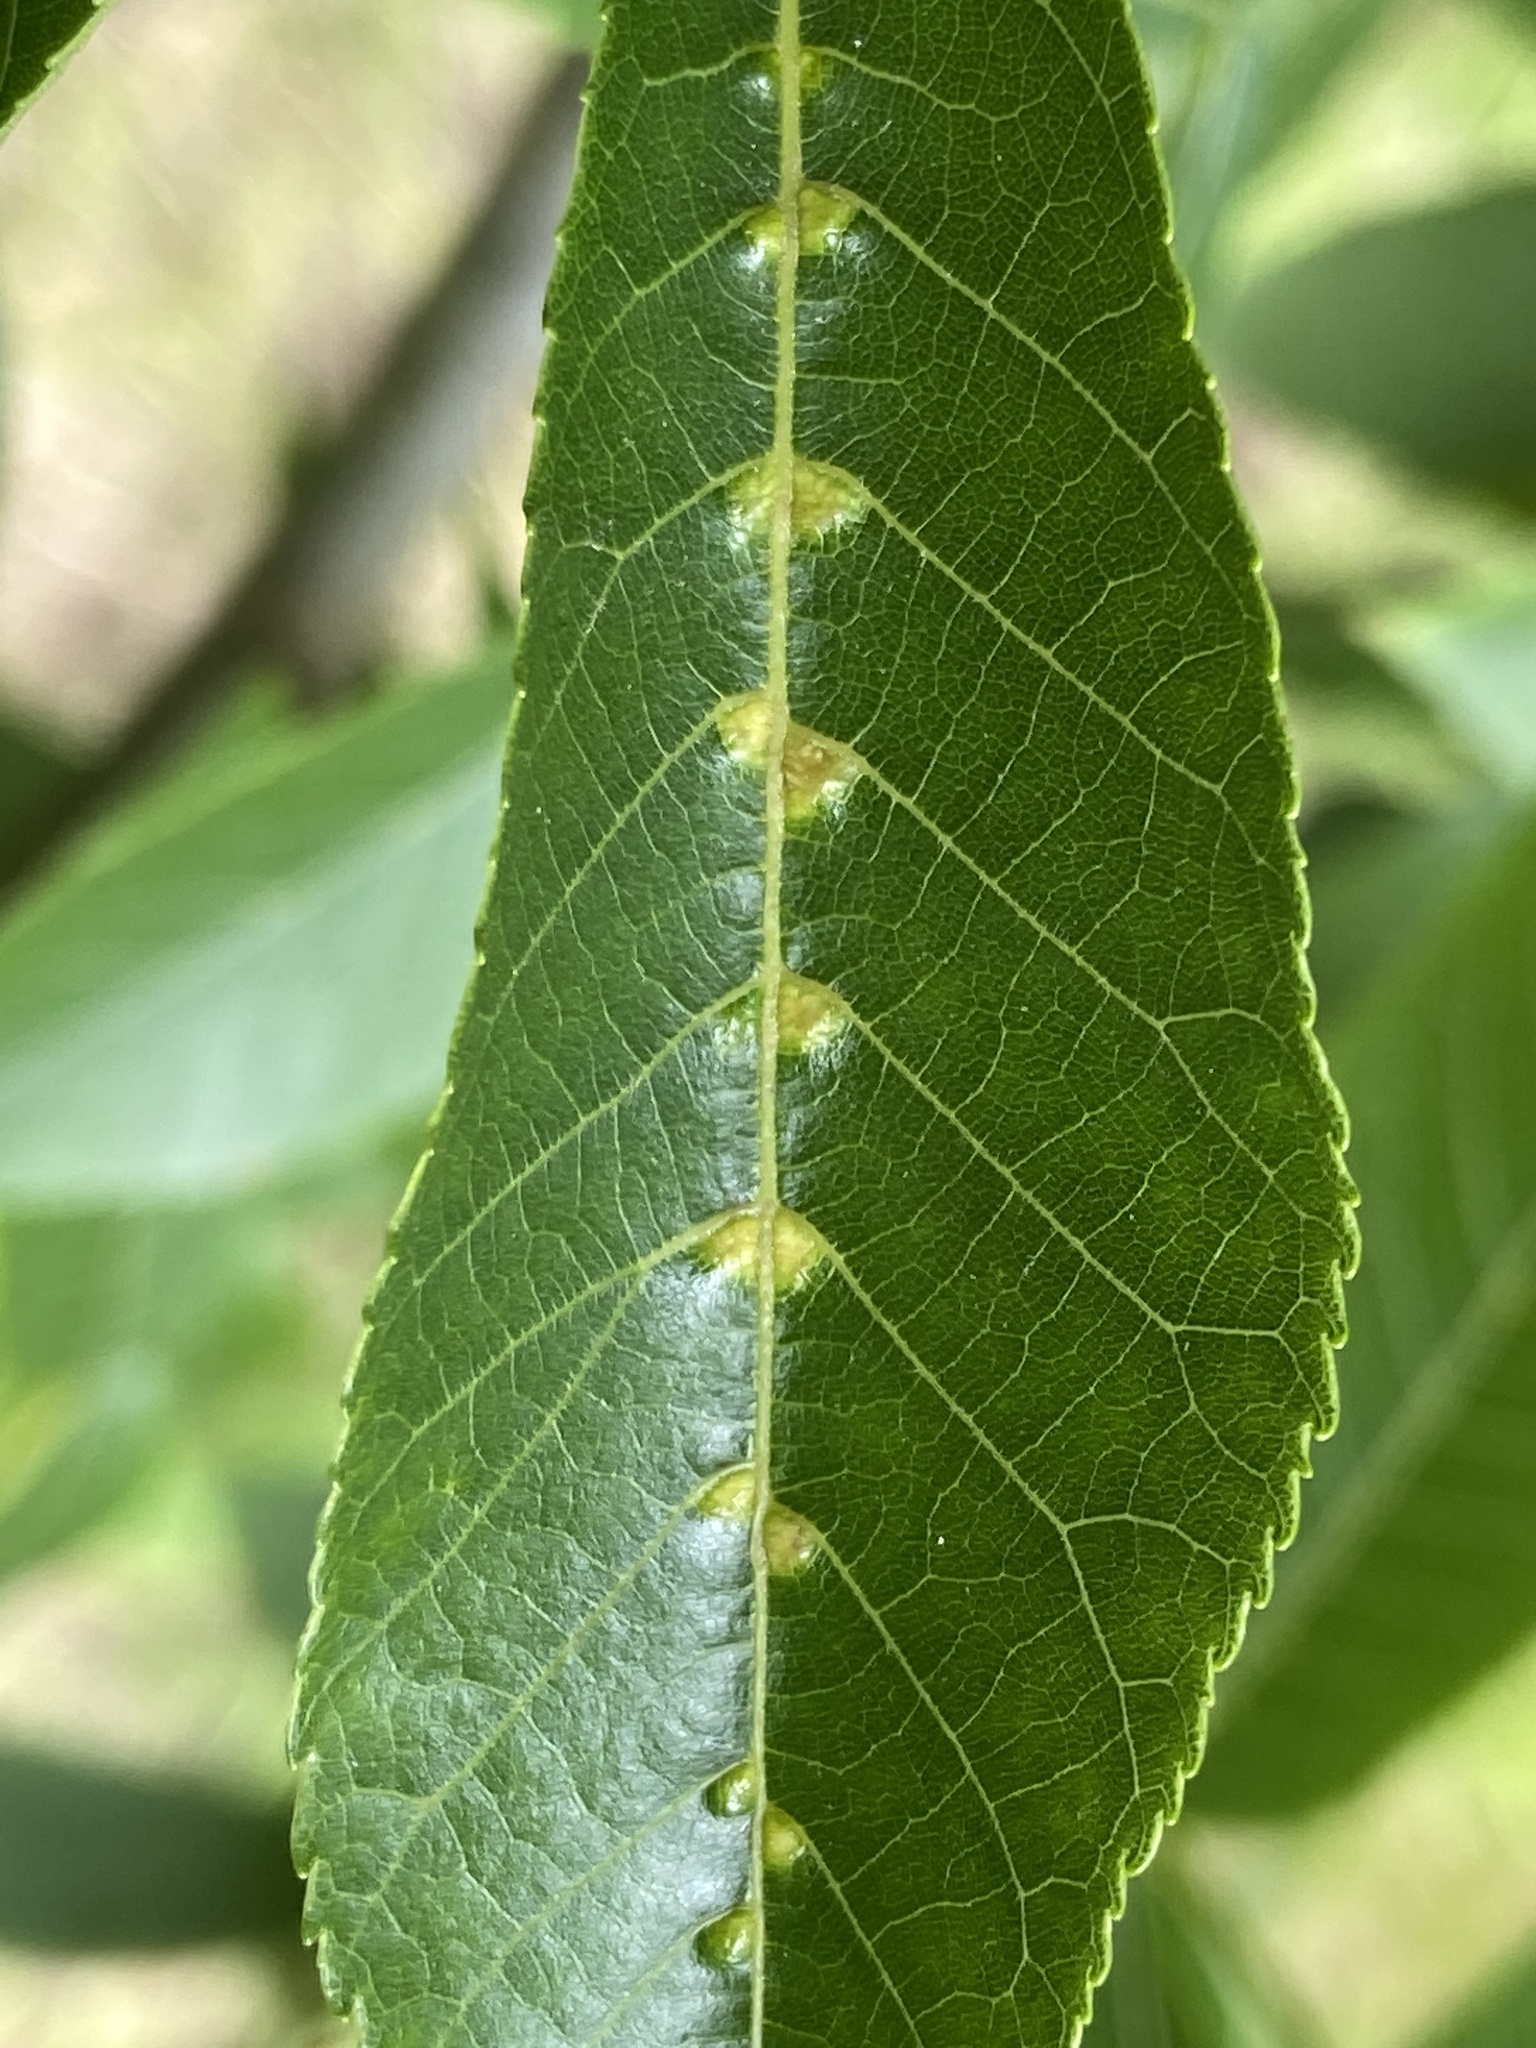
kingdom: Animalia
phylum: Arthropoda
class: Arachnida
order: Trombidiformes
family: Eriophyidae
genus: Aceria
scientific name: Aceria
